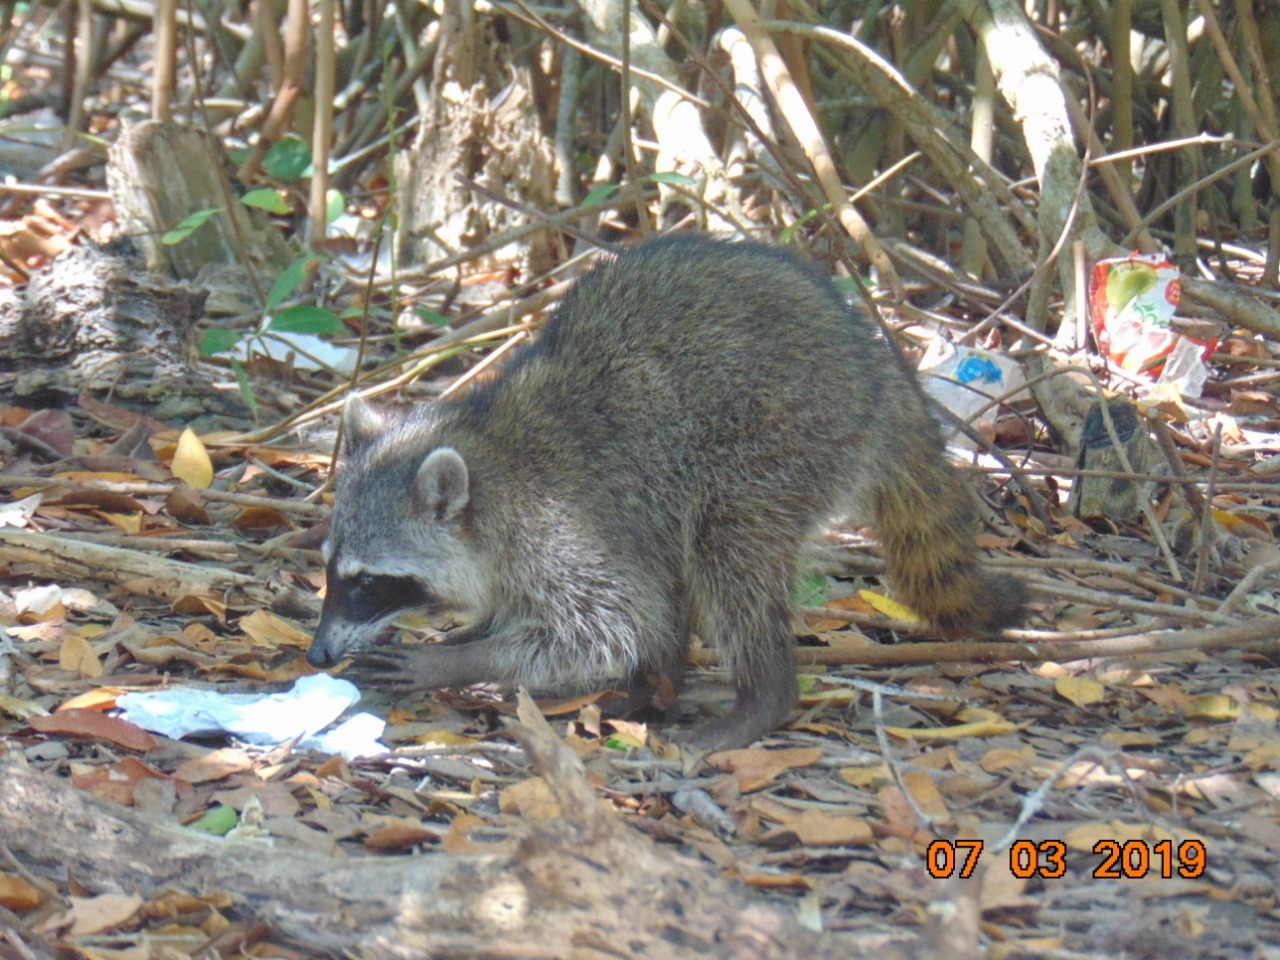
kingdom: Animalia
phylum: Chordata
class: Mammalia
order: Carnivora
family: Procyonidae
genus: Procyon
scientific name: Procyon lotor
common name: Raccoon
